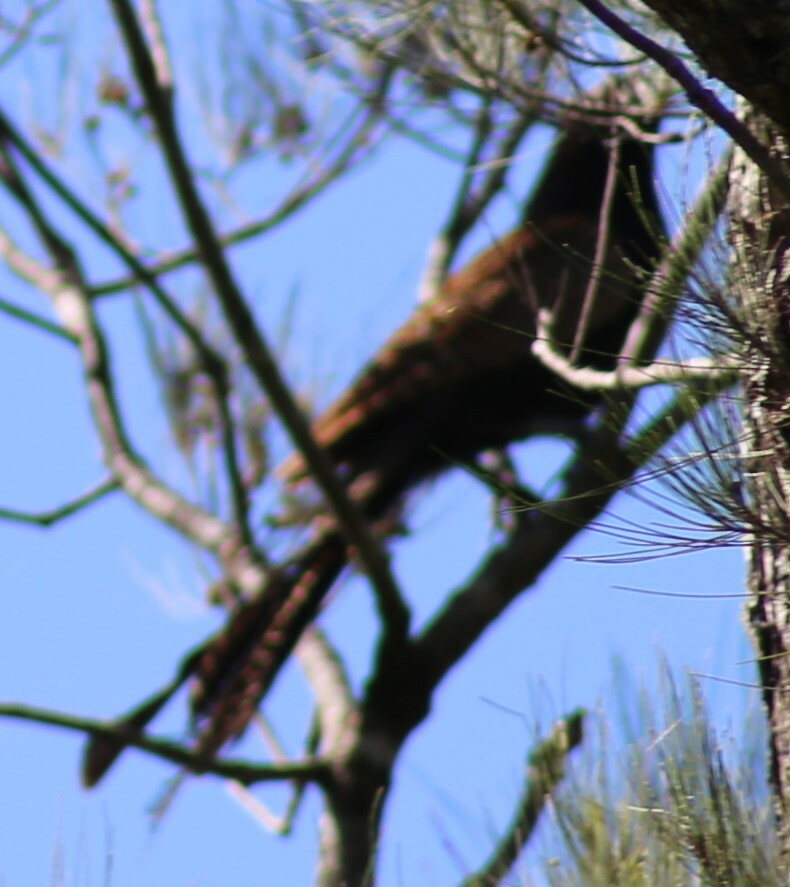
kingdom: Animalia
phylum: Chordata
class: Aves
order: Cuculiformes
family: Cuculidae
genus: Centropus
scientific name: Centropus phasianinus
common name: Pheasant coucal
